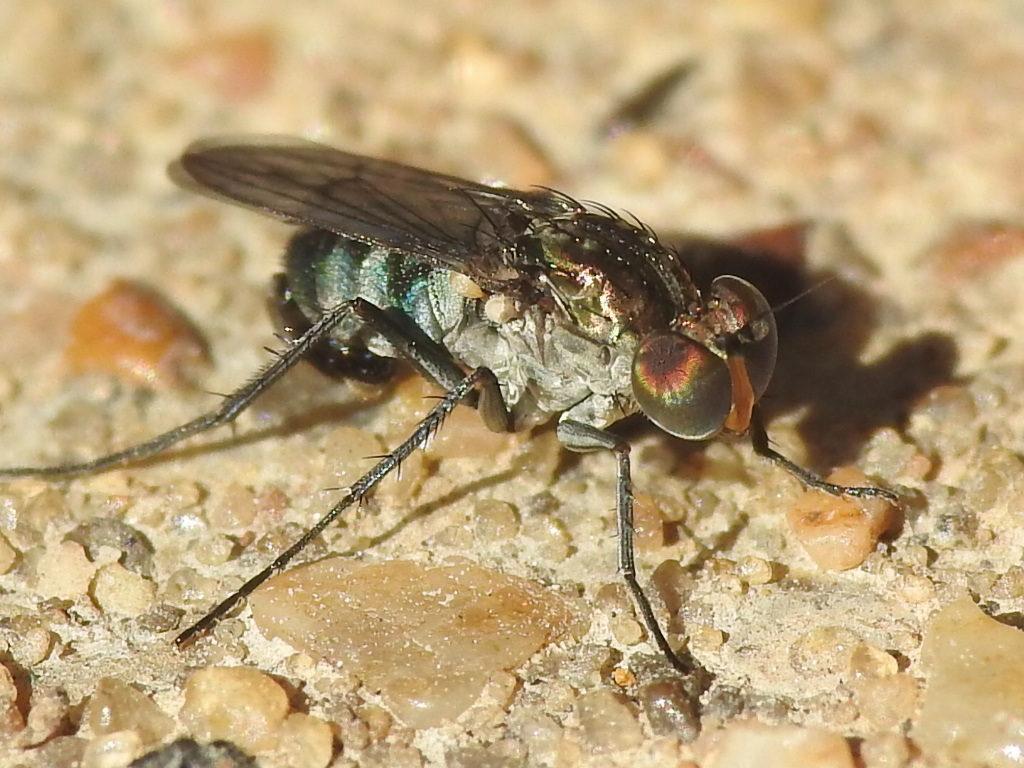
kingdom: Animalia
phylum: Arthropoda
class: Insecta
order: Diptera
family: Dolichopodidae
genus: Tachytrechus
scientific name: Tachytrechus angustipennis
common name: Long-legged fly
